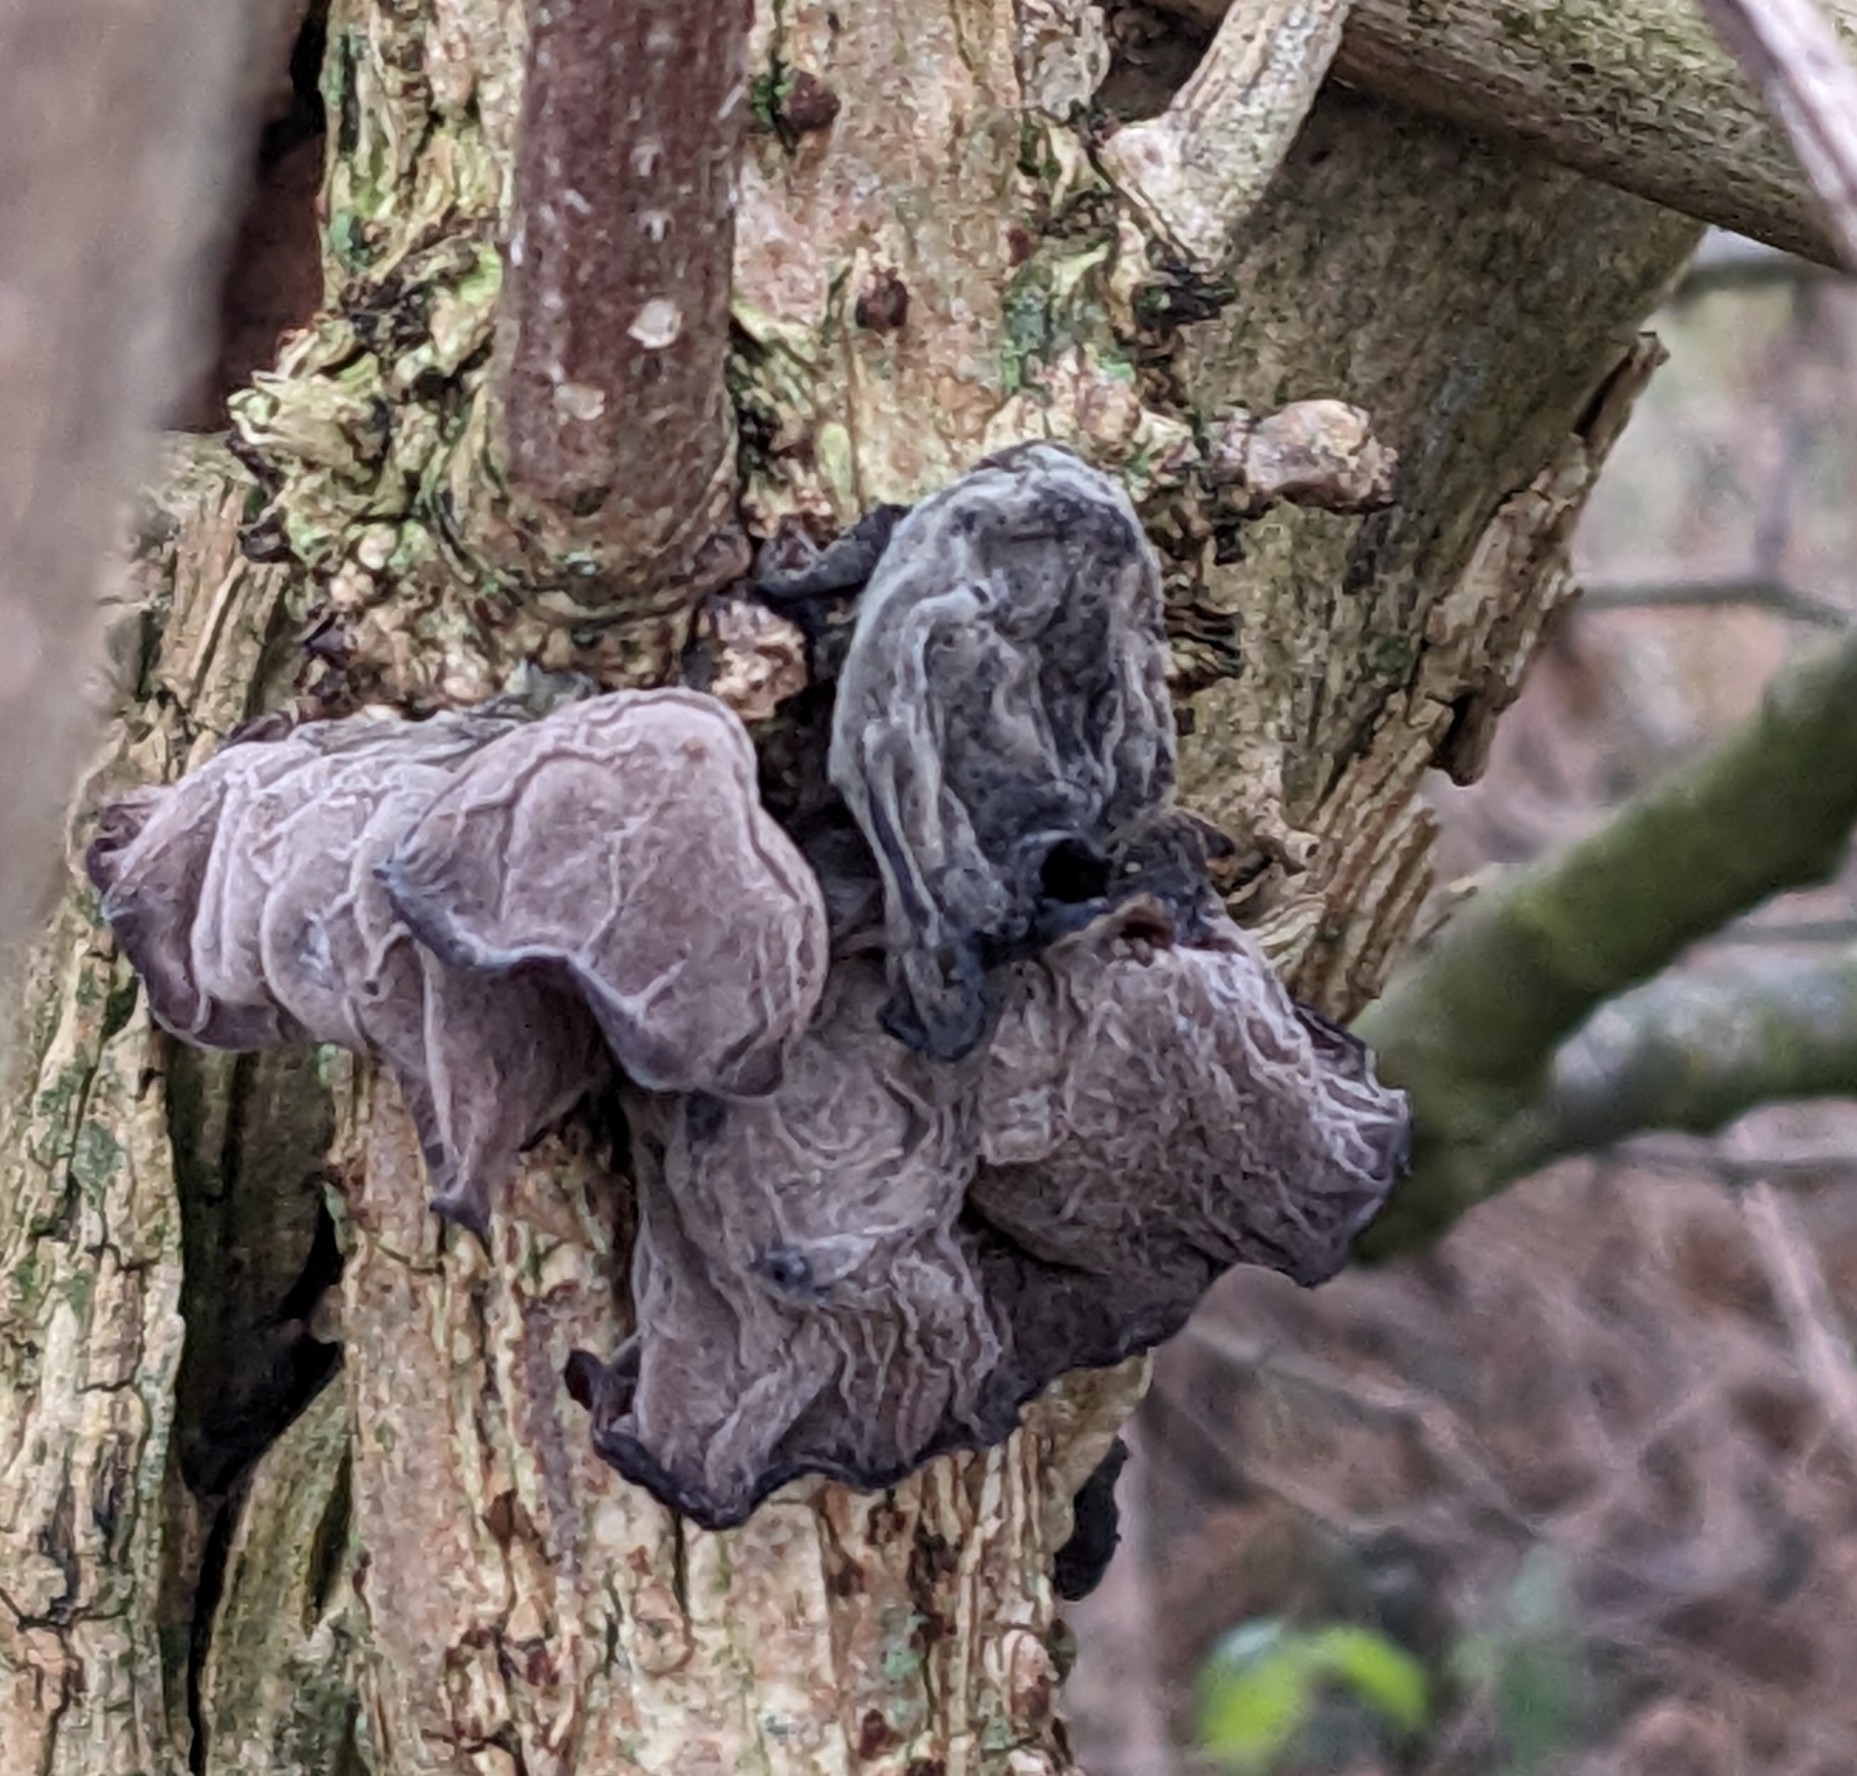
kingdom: Fungi
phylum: Basidiomycota
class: Agaricomycetes
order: Auriculariales
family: Auriculariaceae
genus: Auricularia
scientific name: Auricularia auricula-judae
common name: Jelly ear
